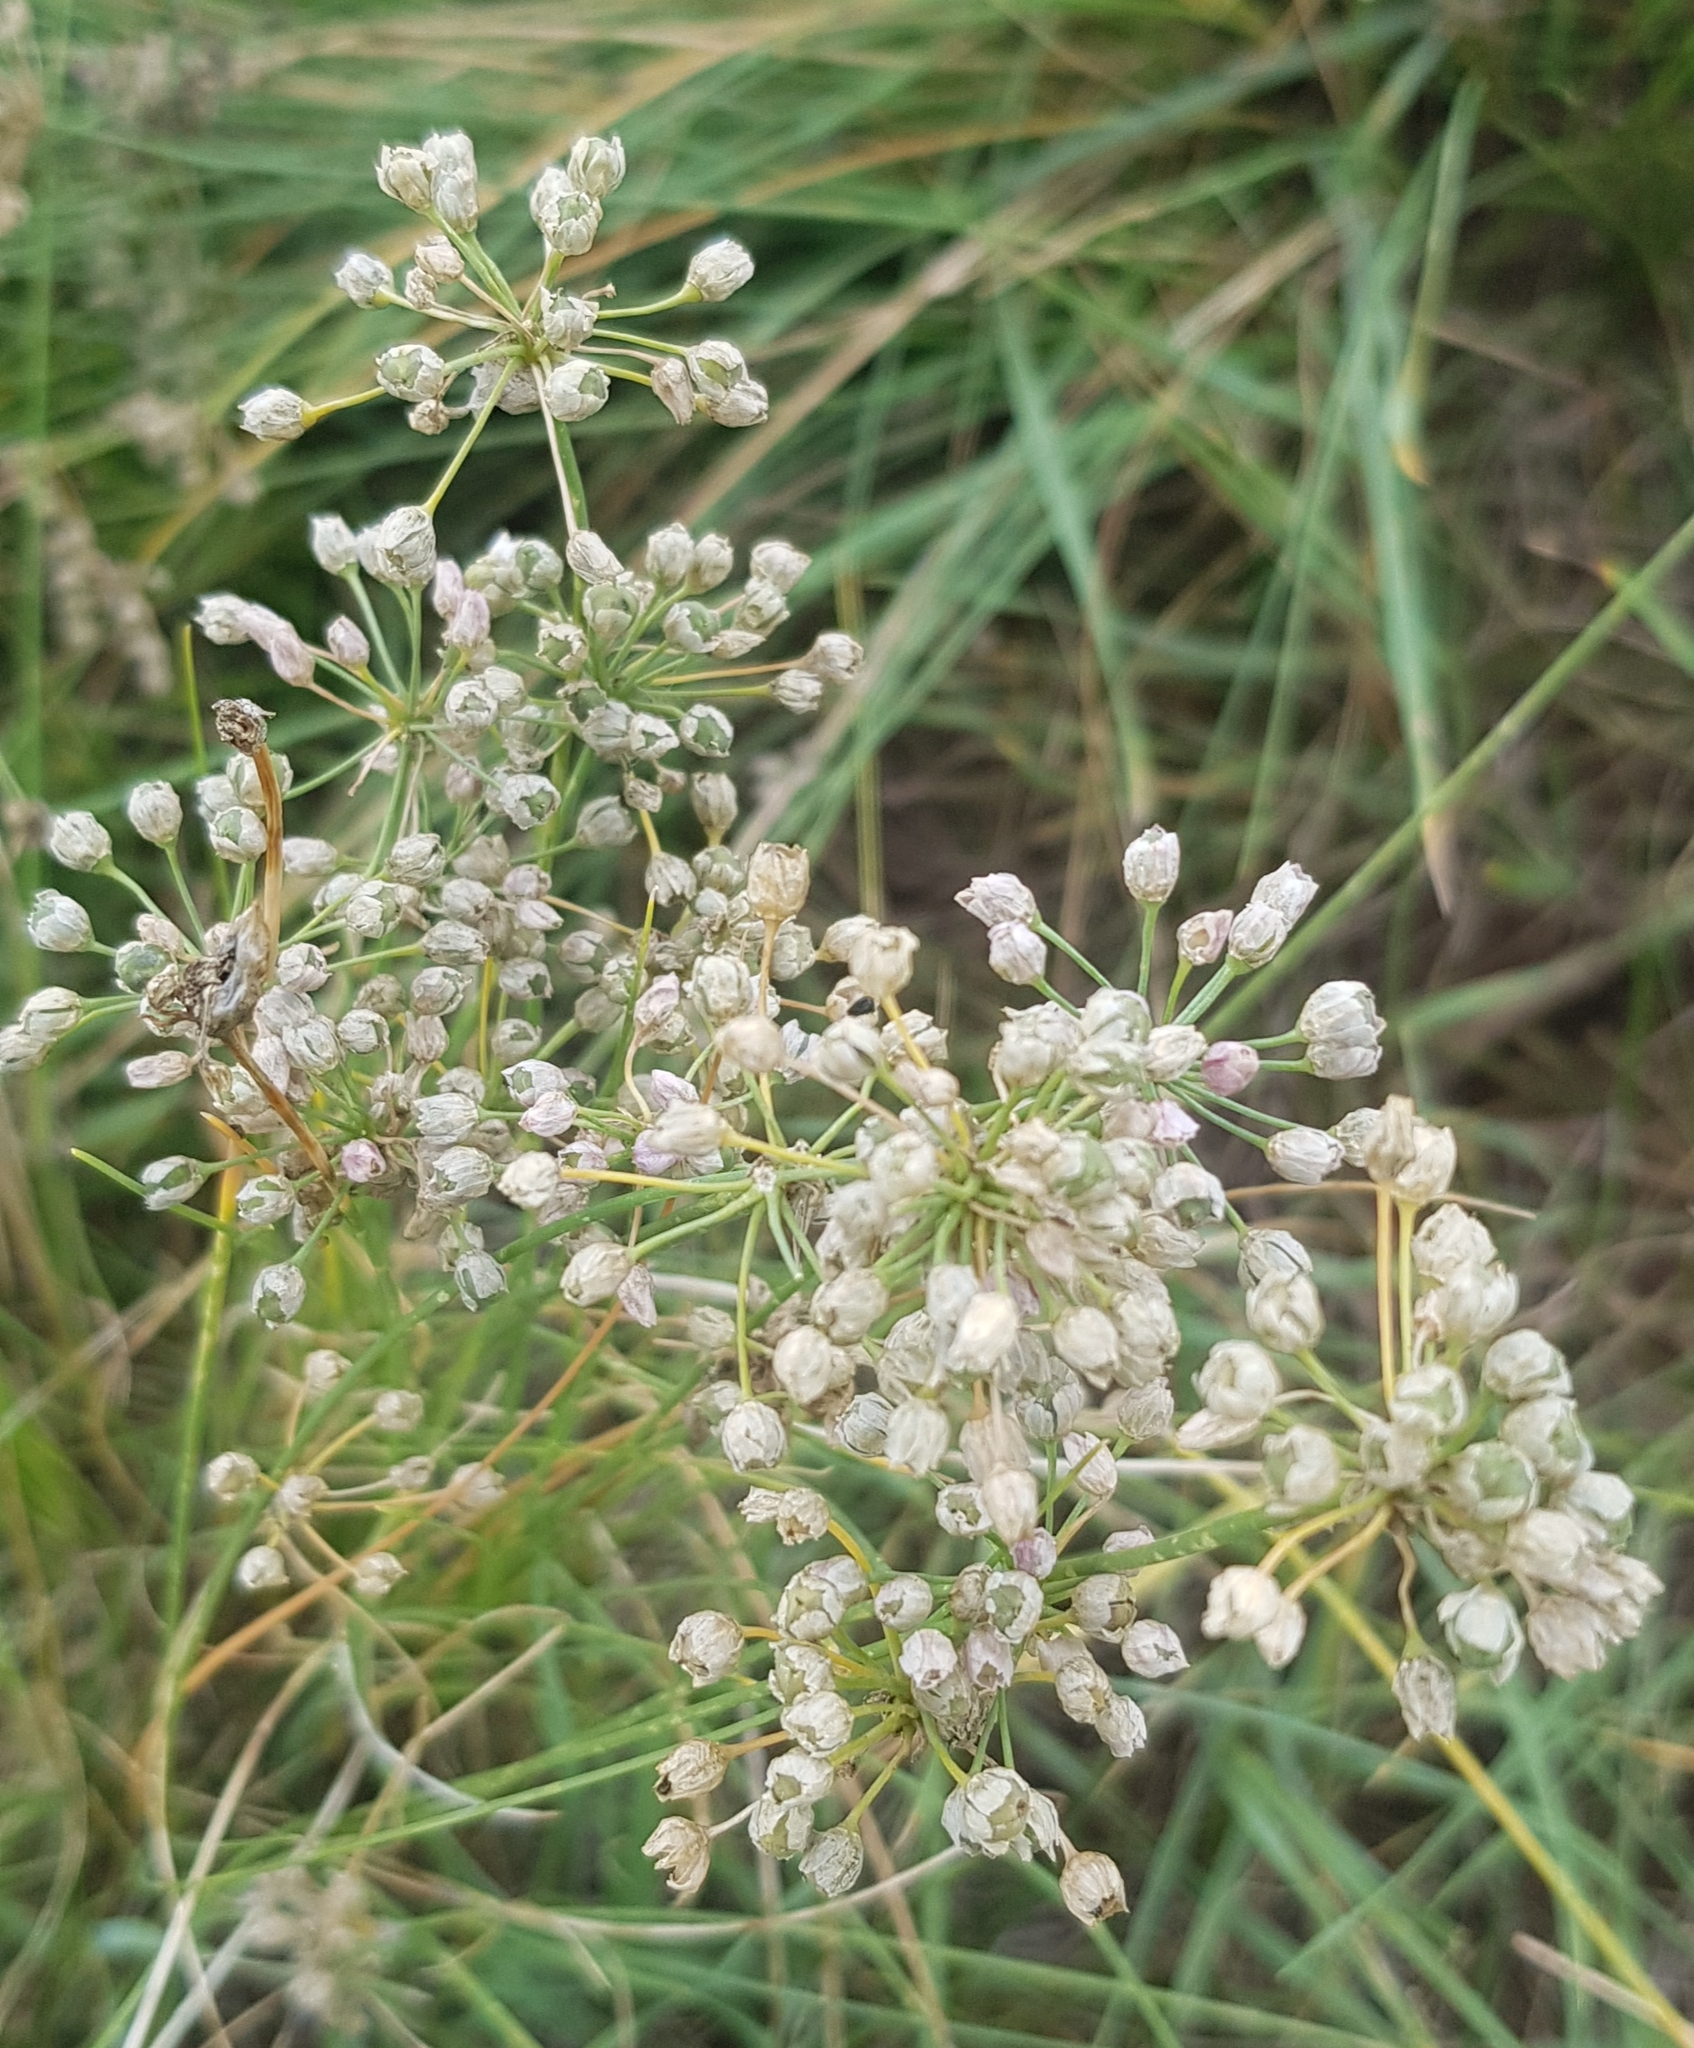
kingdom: Plantae
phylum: Tracheophyta
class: Liliopsida
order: Asparagales
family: Amaryllidaceae
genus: Allium
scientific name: Allium ramosum
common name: Fragrant garlic
